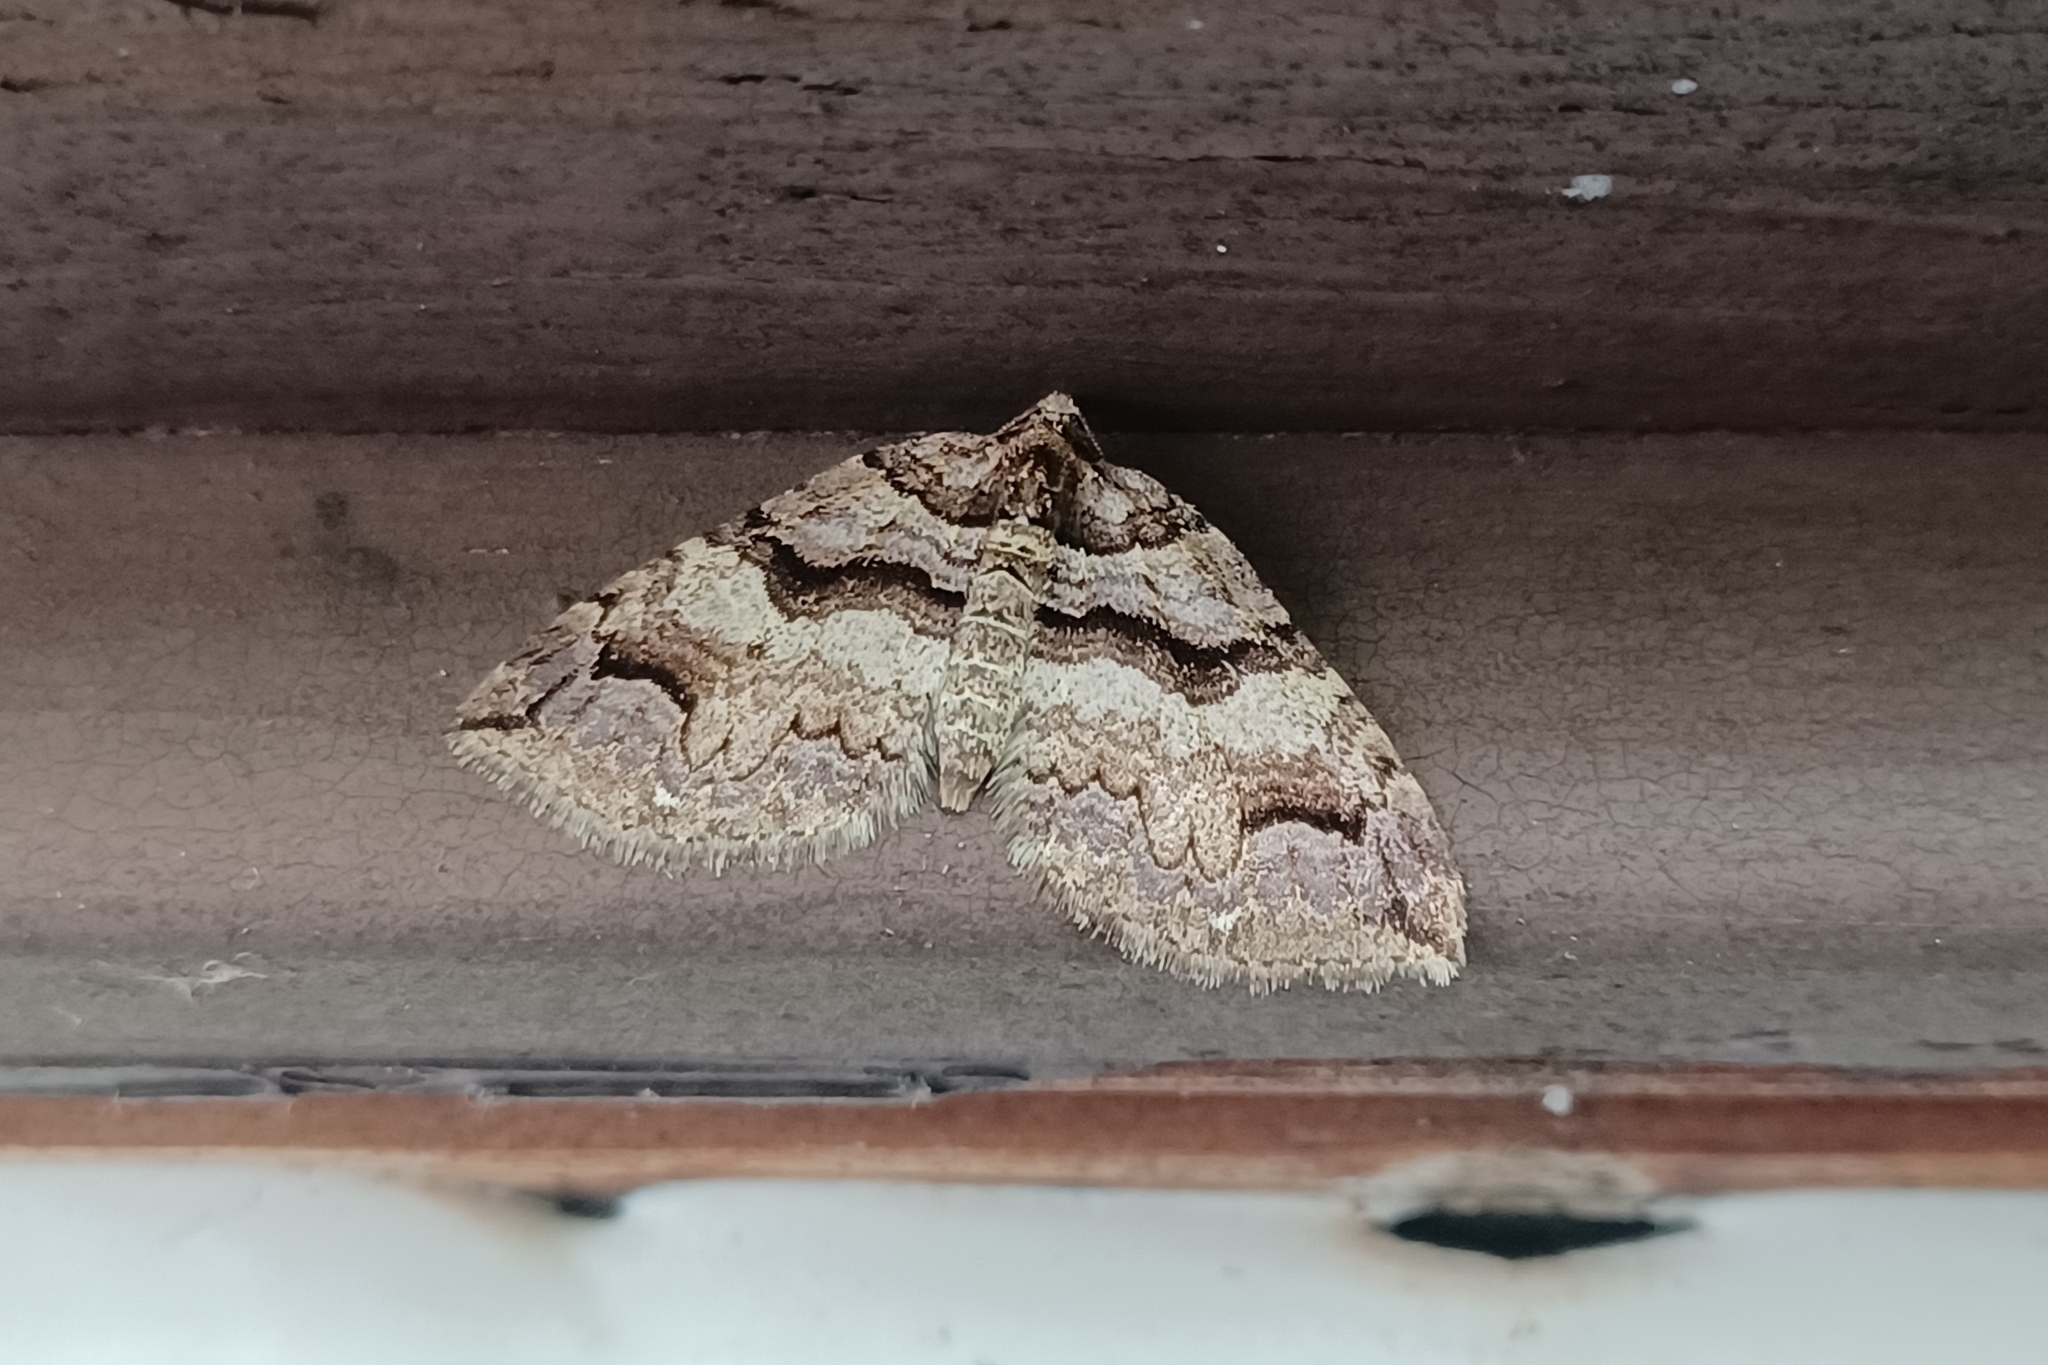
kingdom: Animalia
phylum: Arthropoda
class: Insecta
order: Lepidoptera
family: Geometridae
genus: Anticlea
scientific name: Anticlea vasiliata
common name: Variable carpet
